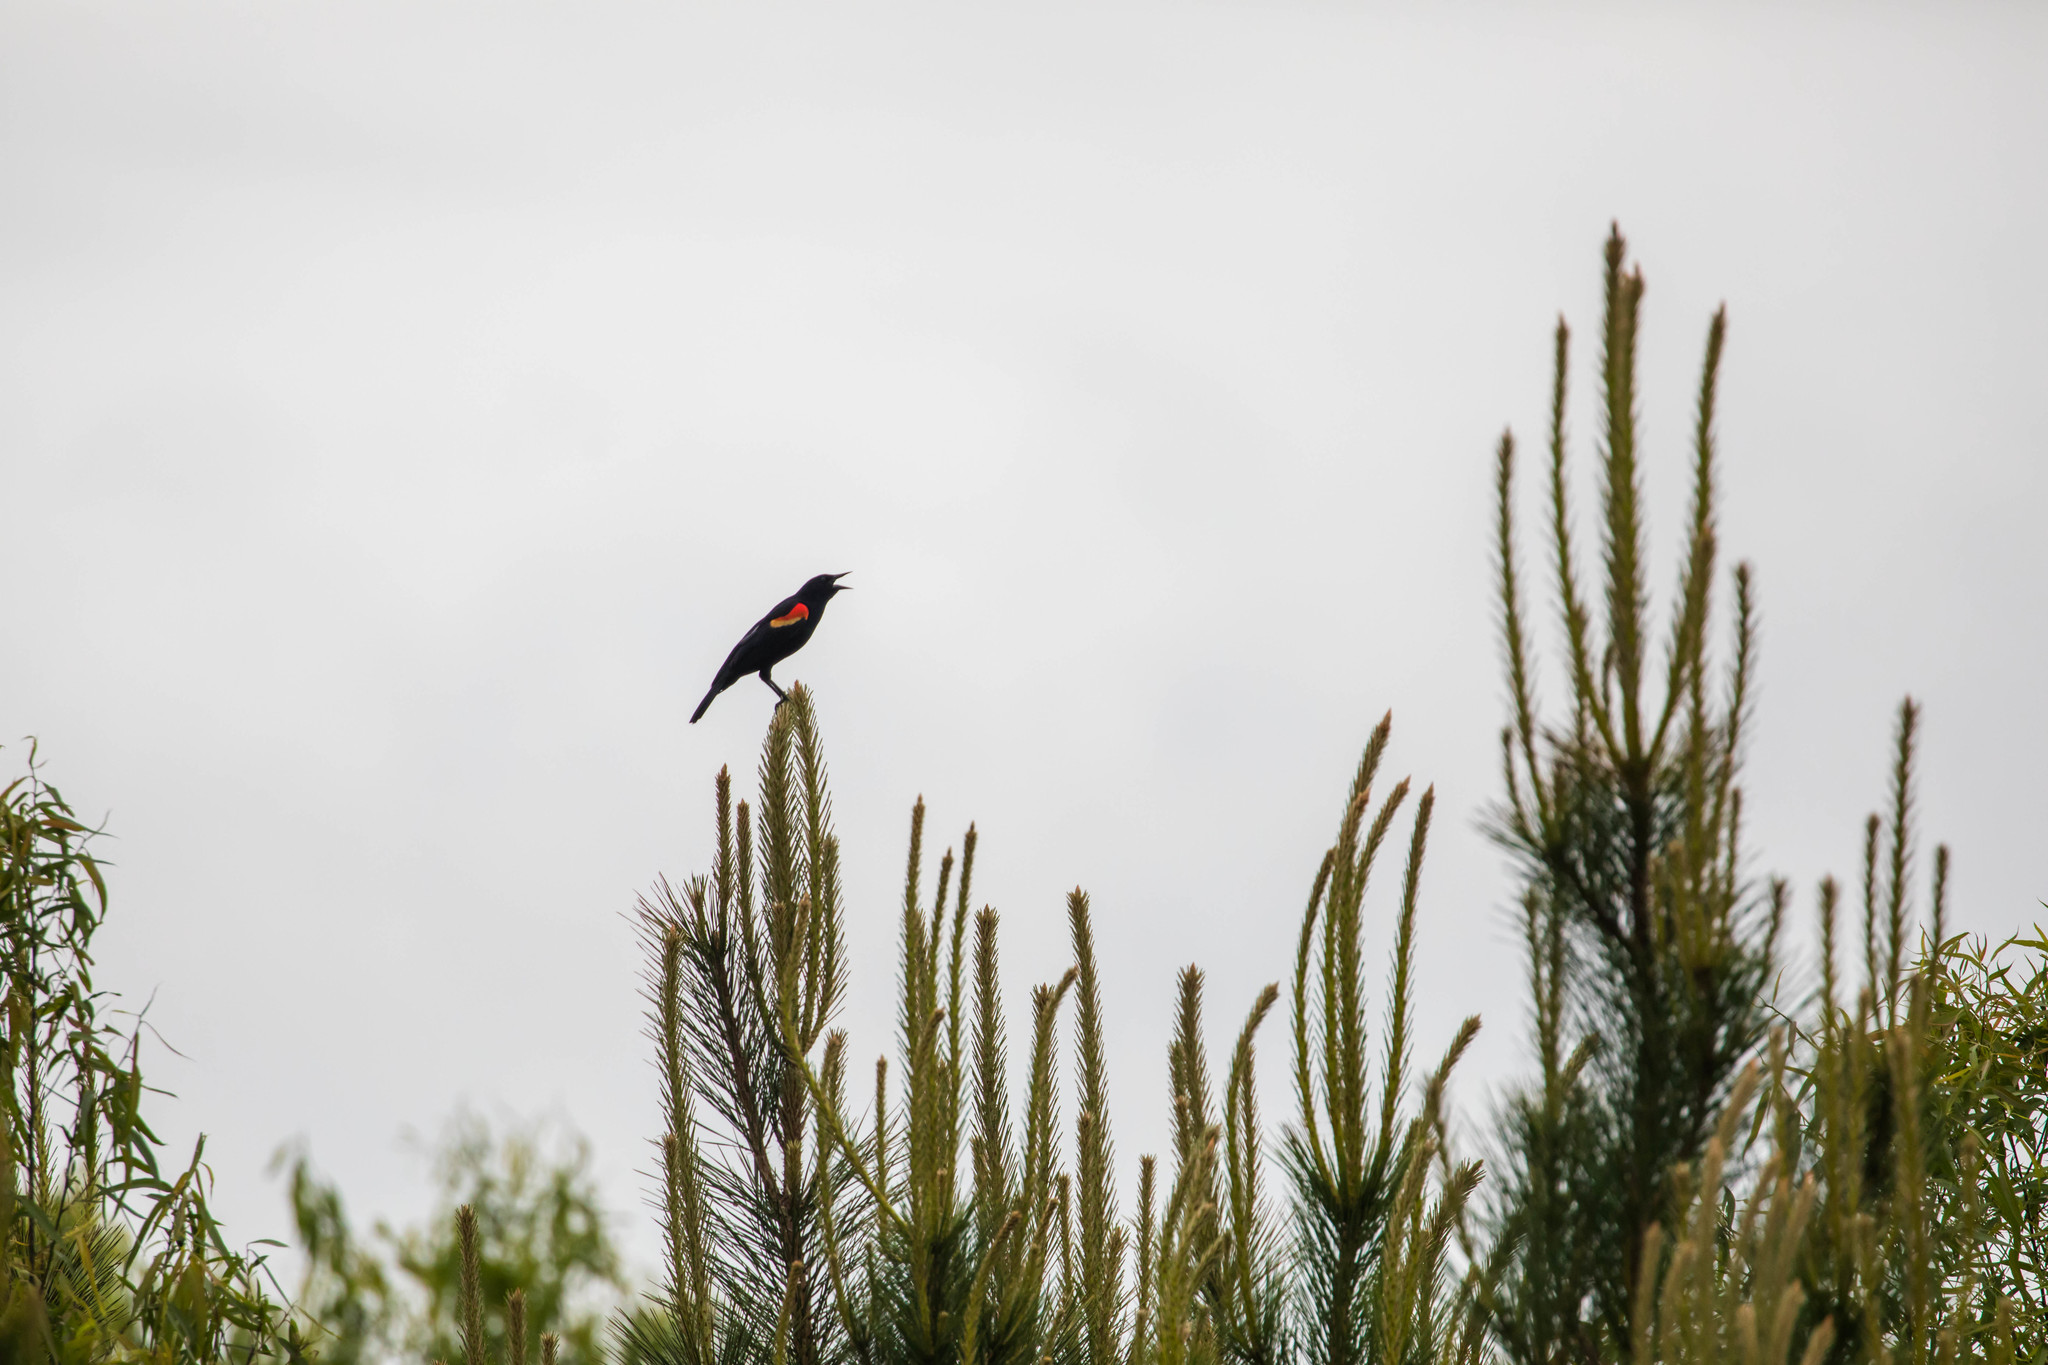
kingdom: Animalia
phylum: Chordata
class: Aves
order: Passeriformes
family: Icteridae
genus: Agelaius
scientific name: Agelaius phoeniceus
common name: Red-winged blackbird
